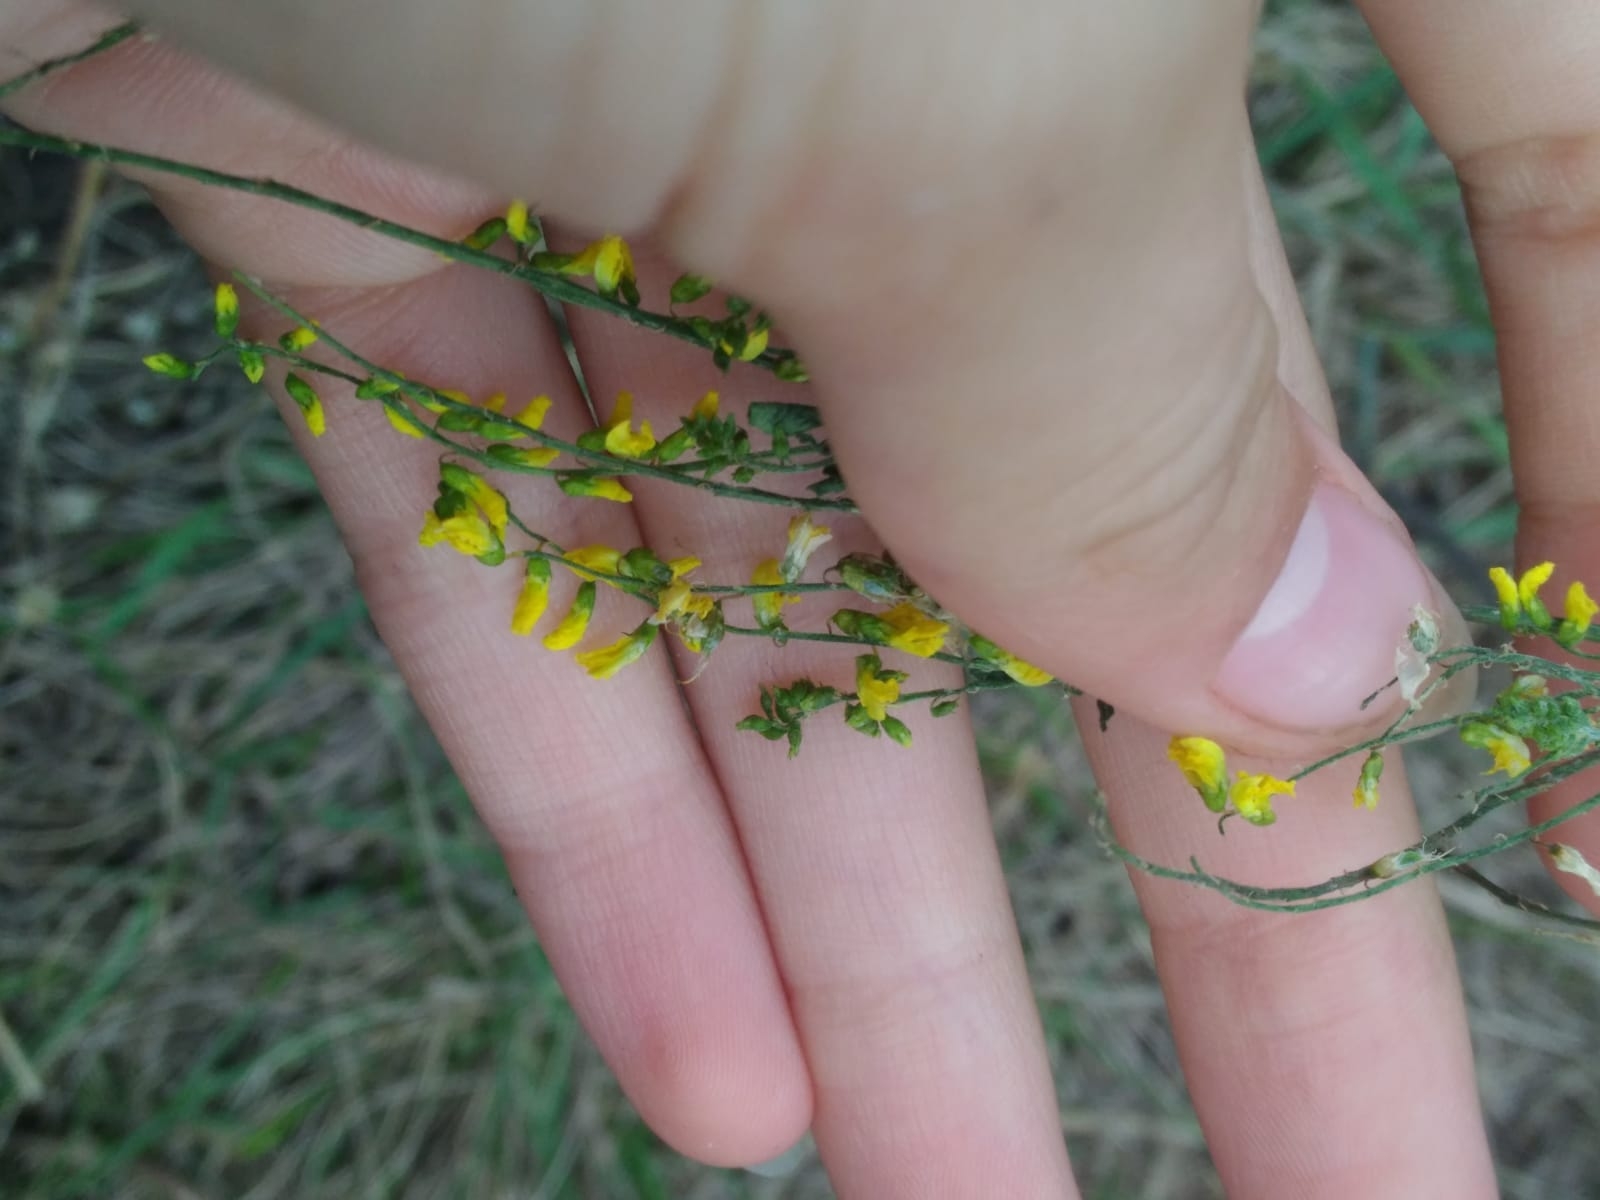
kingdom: Plantae
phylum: Tracheophyta
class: Magnoliopsida
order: Fabales
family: Fabaceae
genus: Melilotus
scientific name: Melilotus officinalis
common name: Sweetclover
